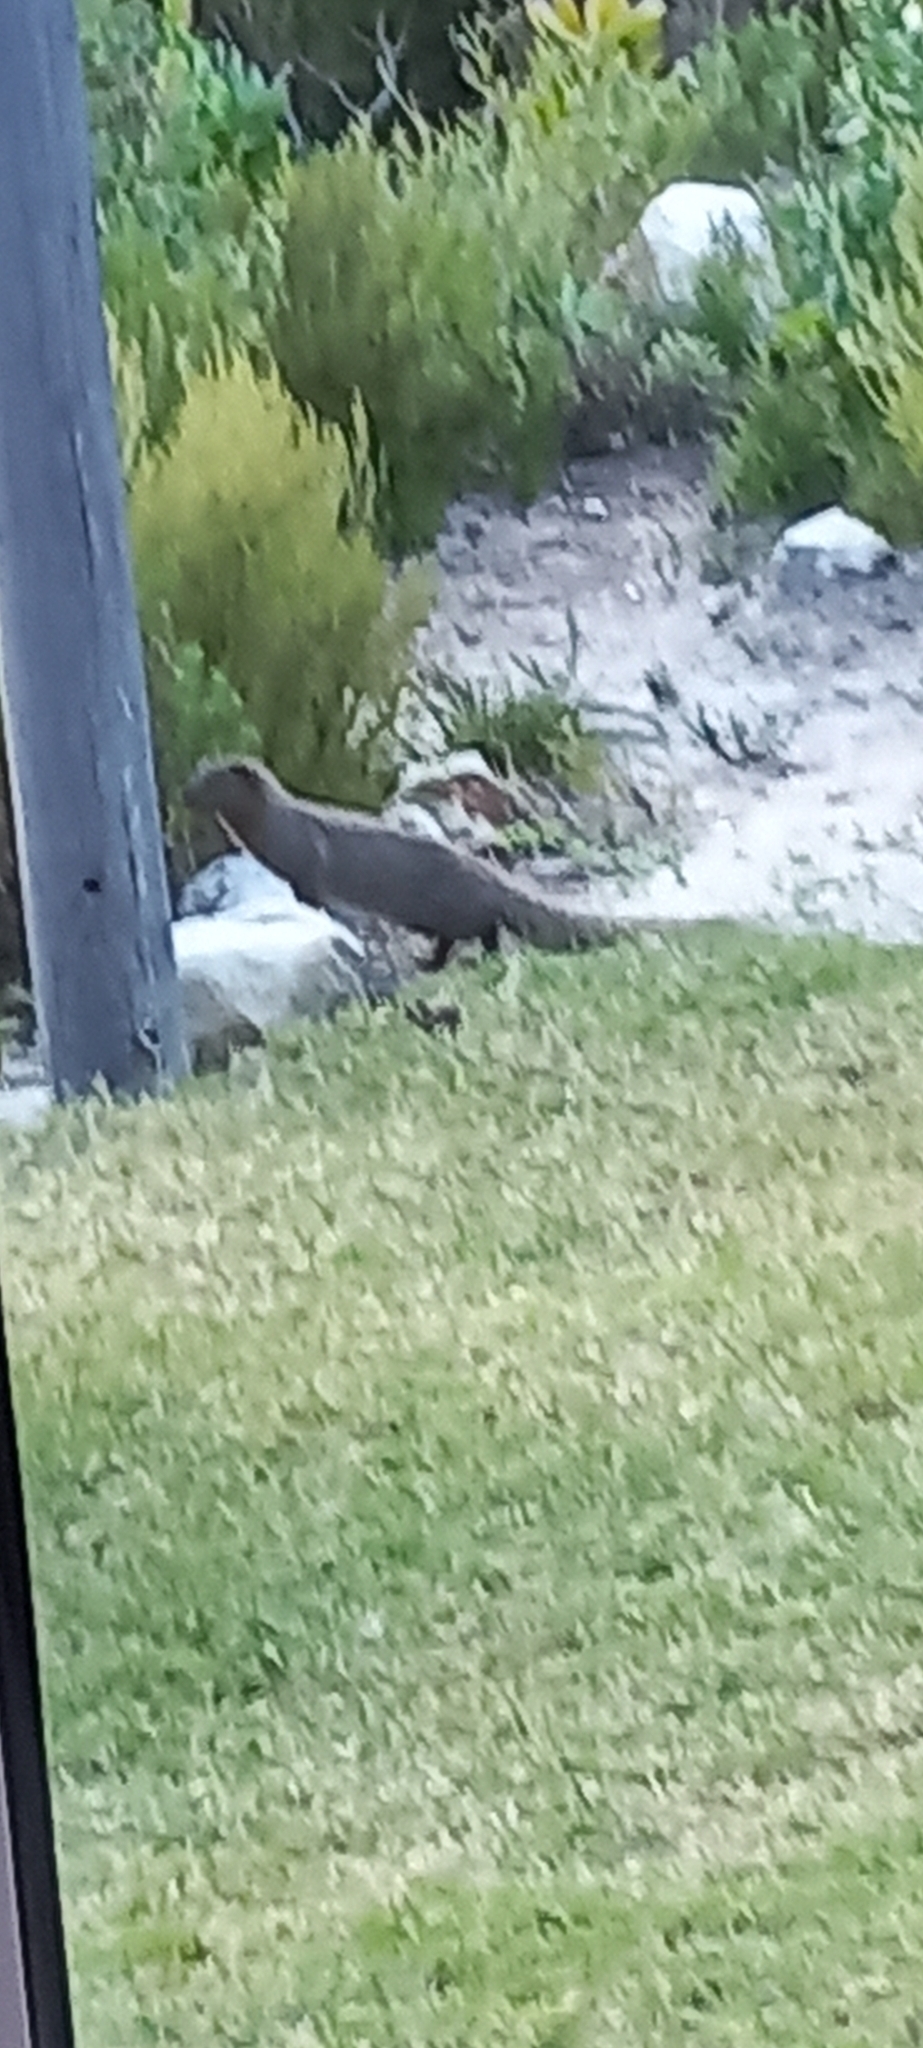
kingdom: Animalia
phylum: Chordata
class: Mammalia
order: Carnivora
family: Herpestidae
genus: Galerella
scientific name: Galerella pulverulenta
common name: Cape gray mongoose
